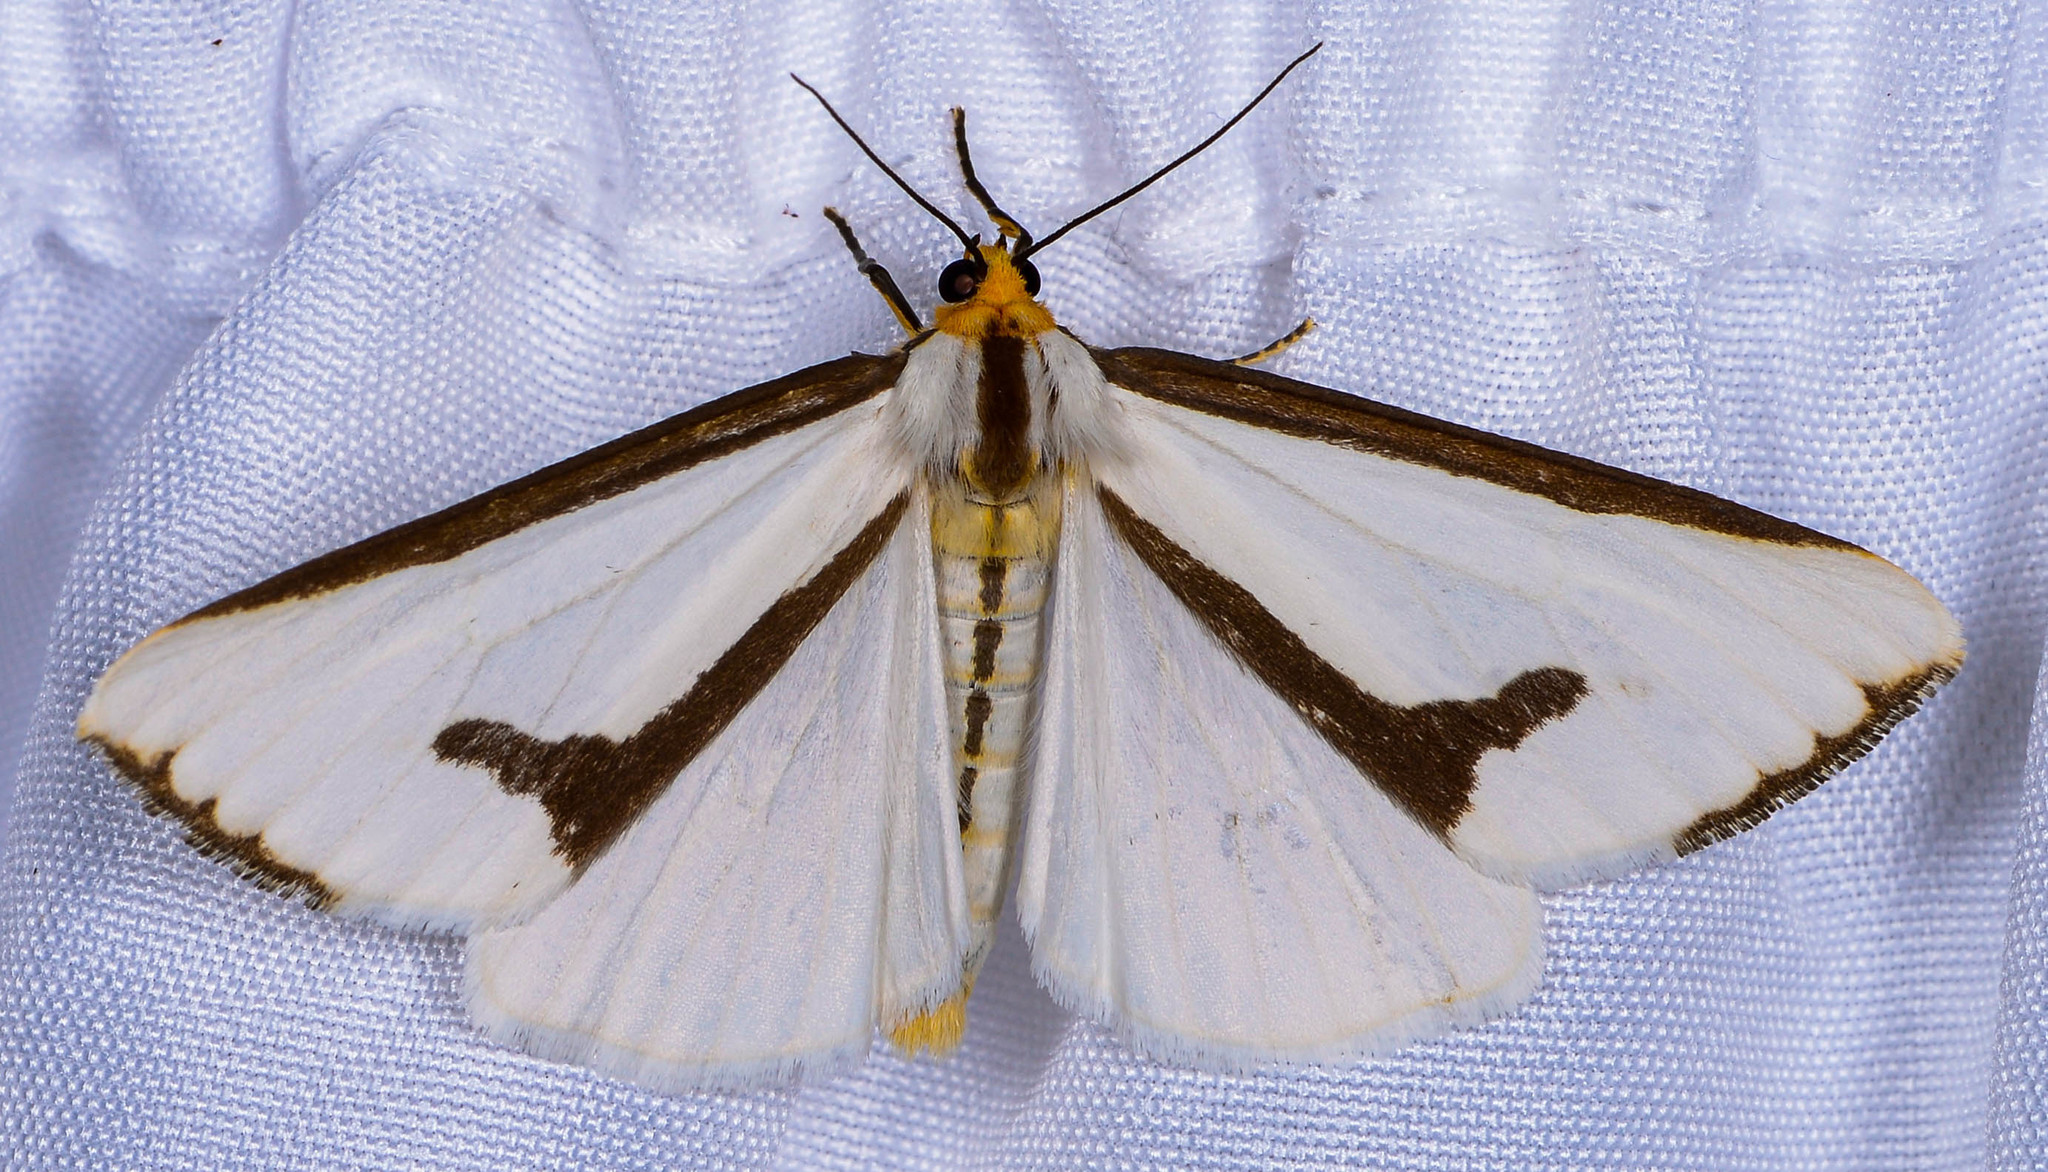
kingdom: Animalia
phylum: Arthropoda
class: Insecta
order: Lepidoptera
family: Erebidae
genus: Haploa
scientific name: Haploa lecontei
